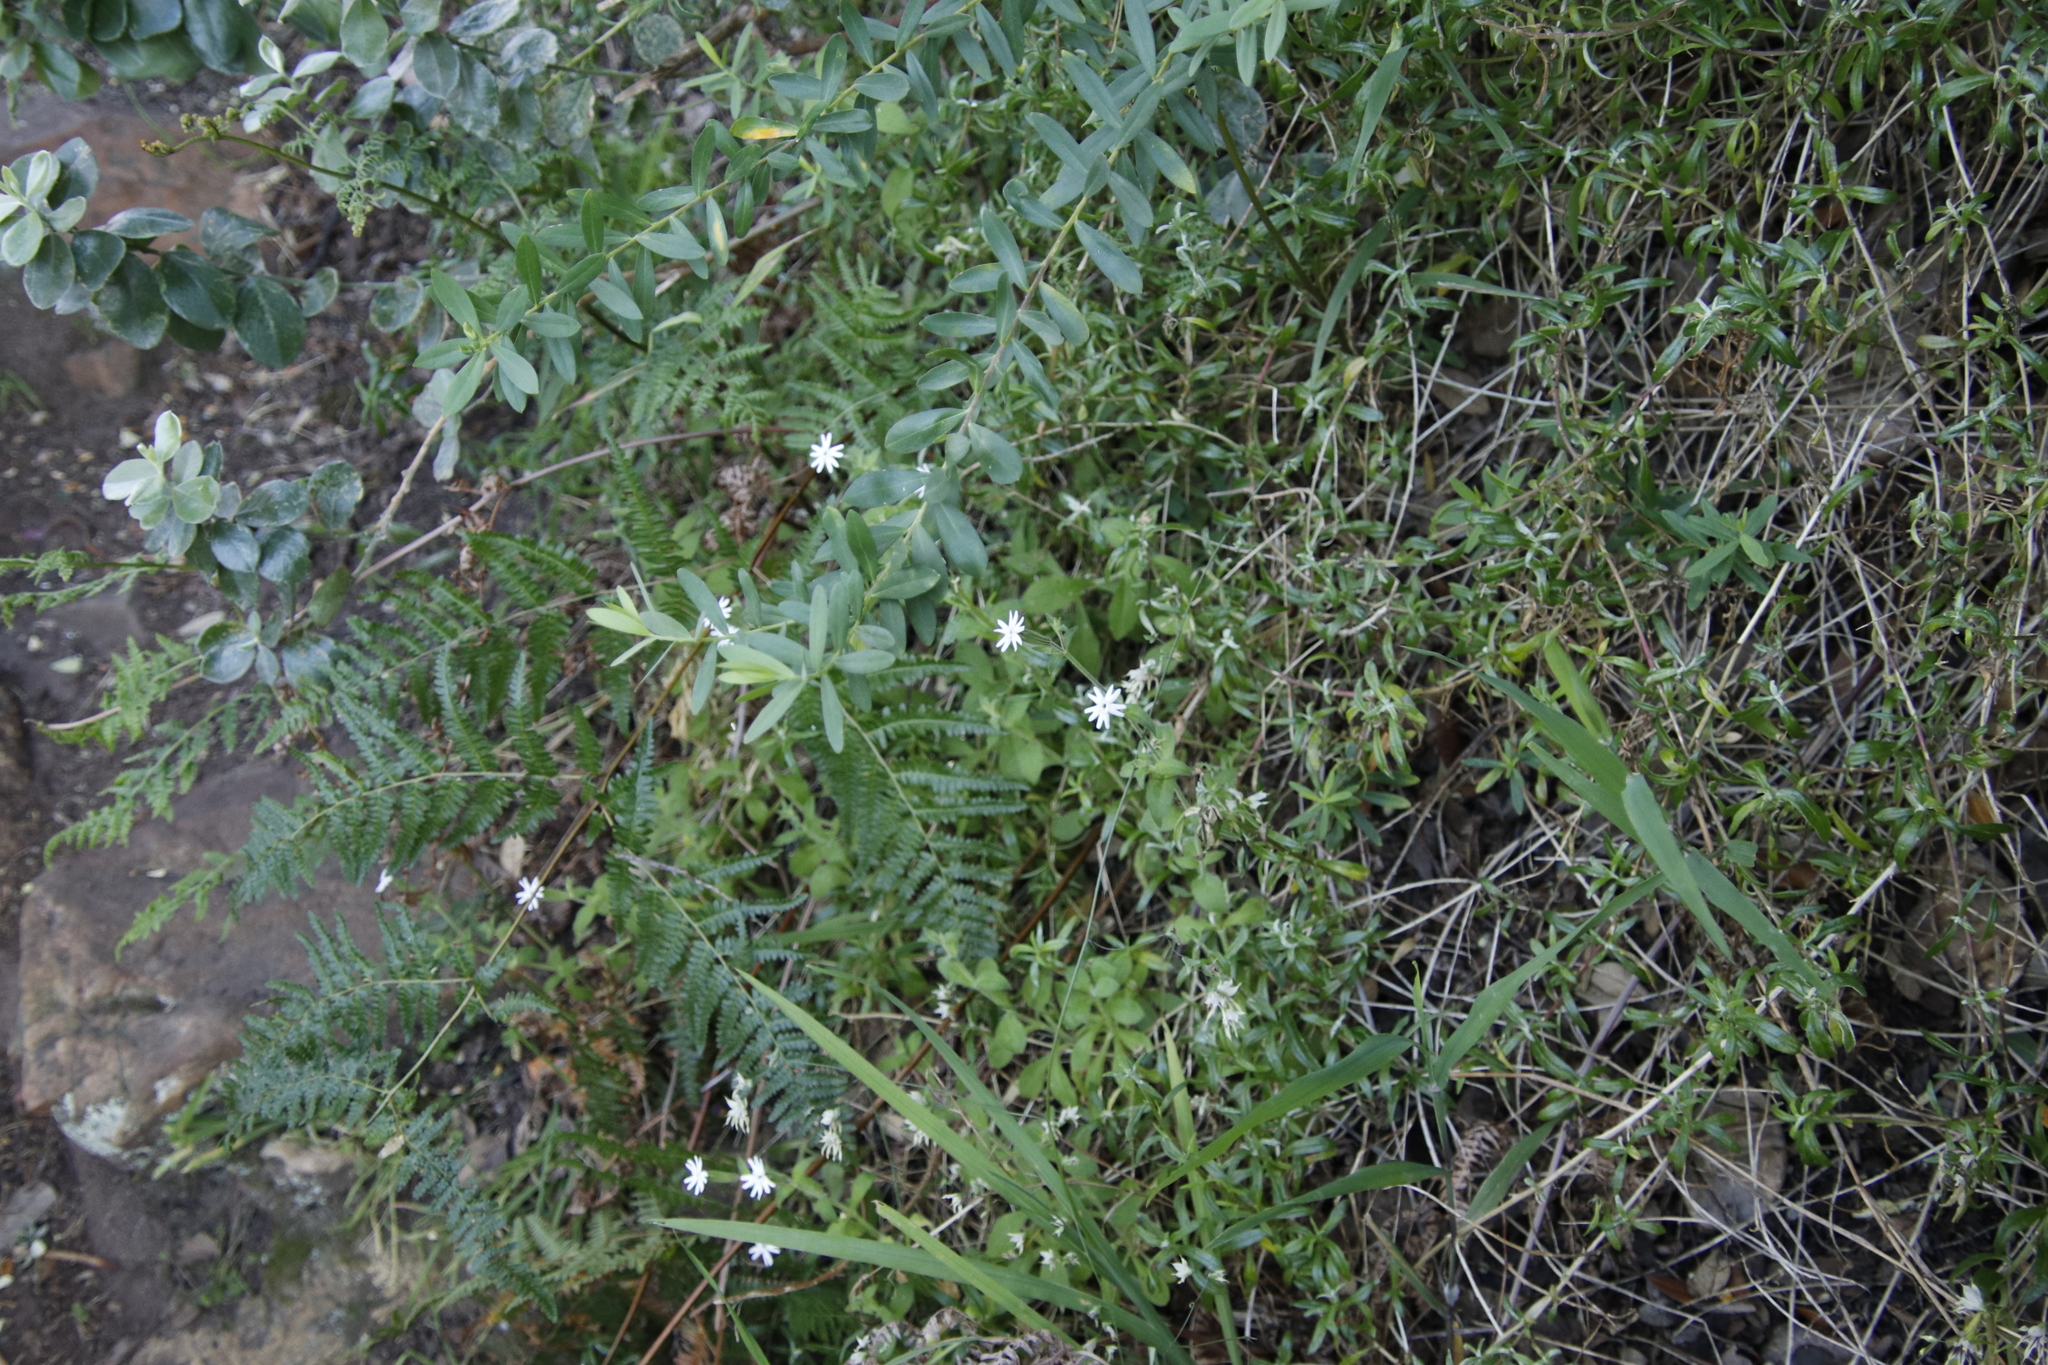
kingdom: Plantae
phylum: Tracheophyta
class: Magnoliopsida
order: Caryophyllales
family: Caryophyllaceae
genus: Silene
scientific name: Silene undulata
